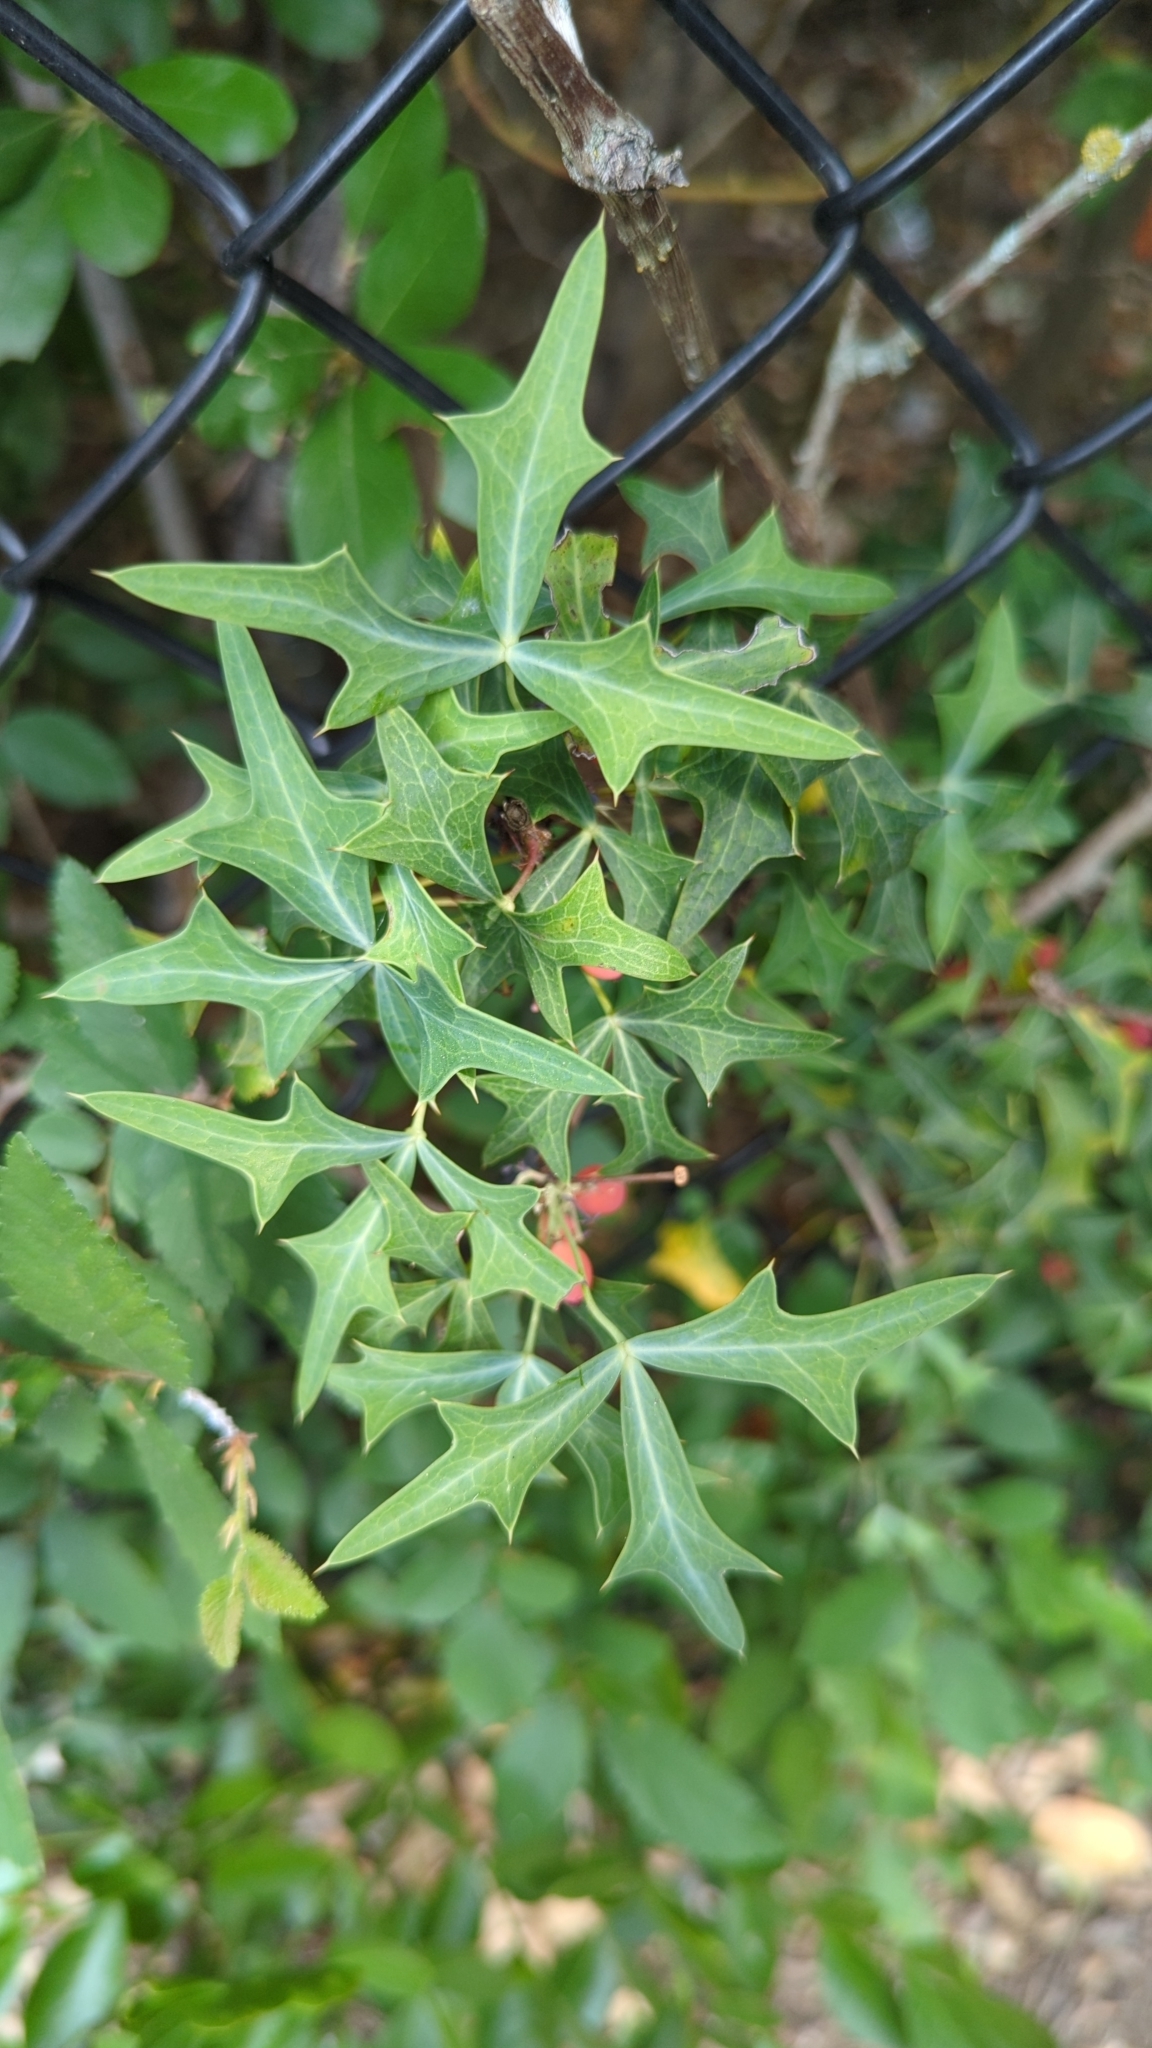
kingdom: Plantae
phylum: Tracheophyta
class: Magnoliopsida
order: Ranunculales
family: Berberidaceae
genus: Alloberberis
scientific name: Alloberberis trifoliolata
